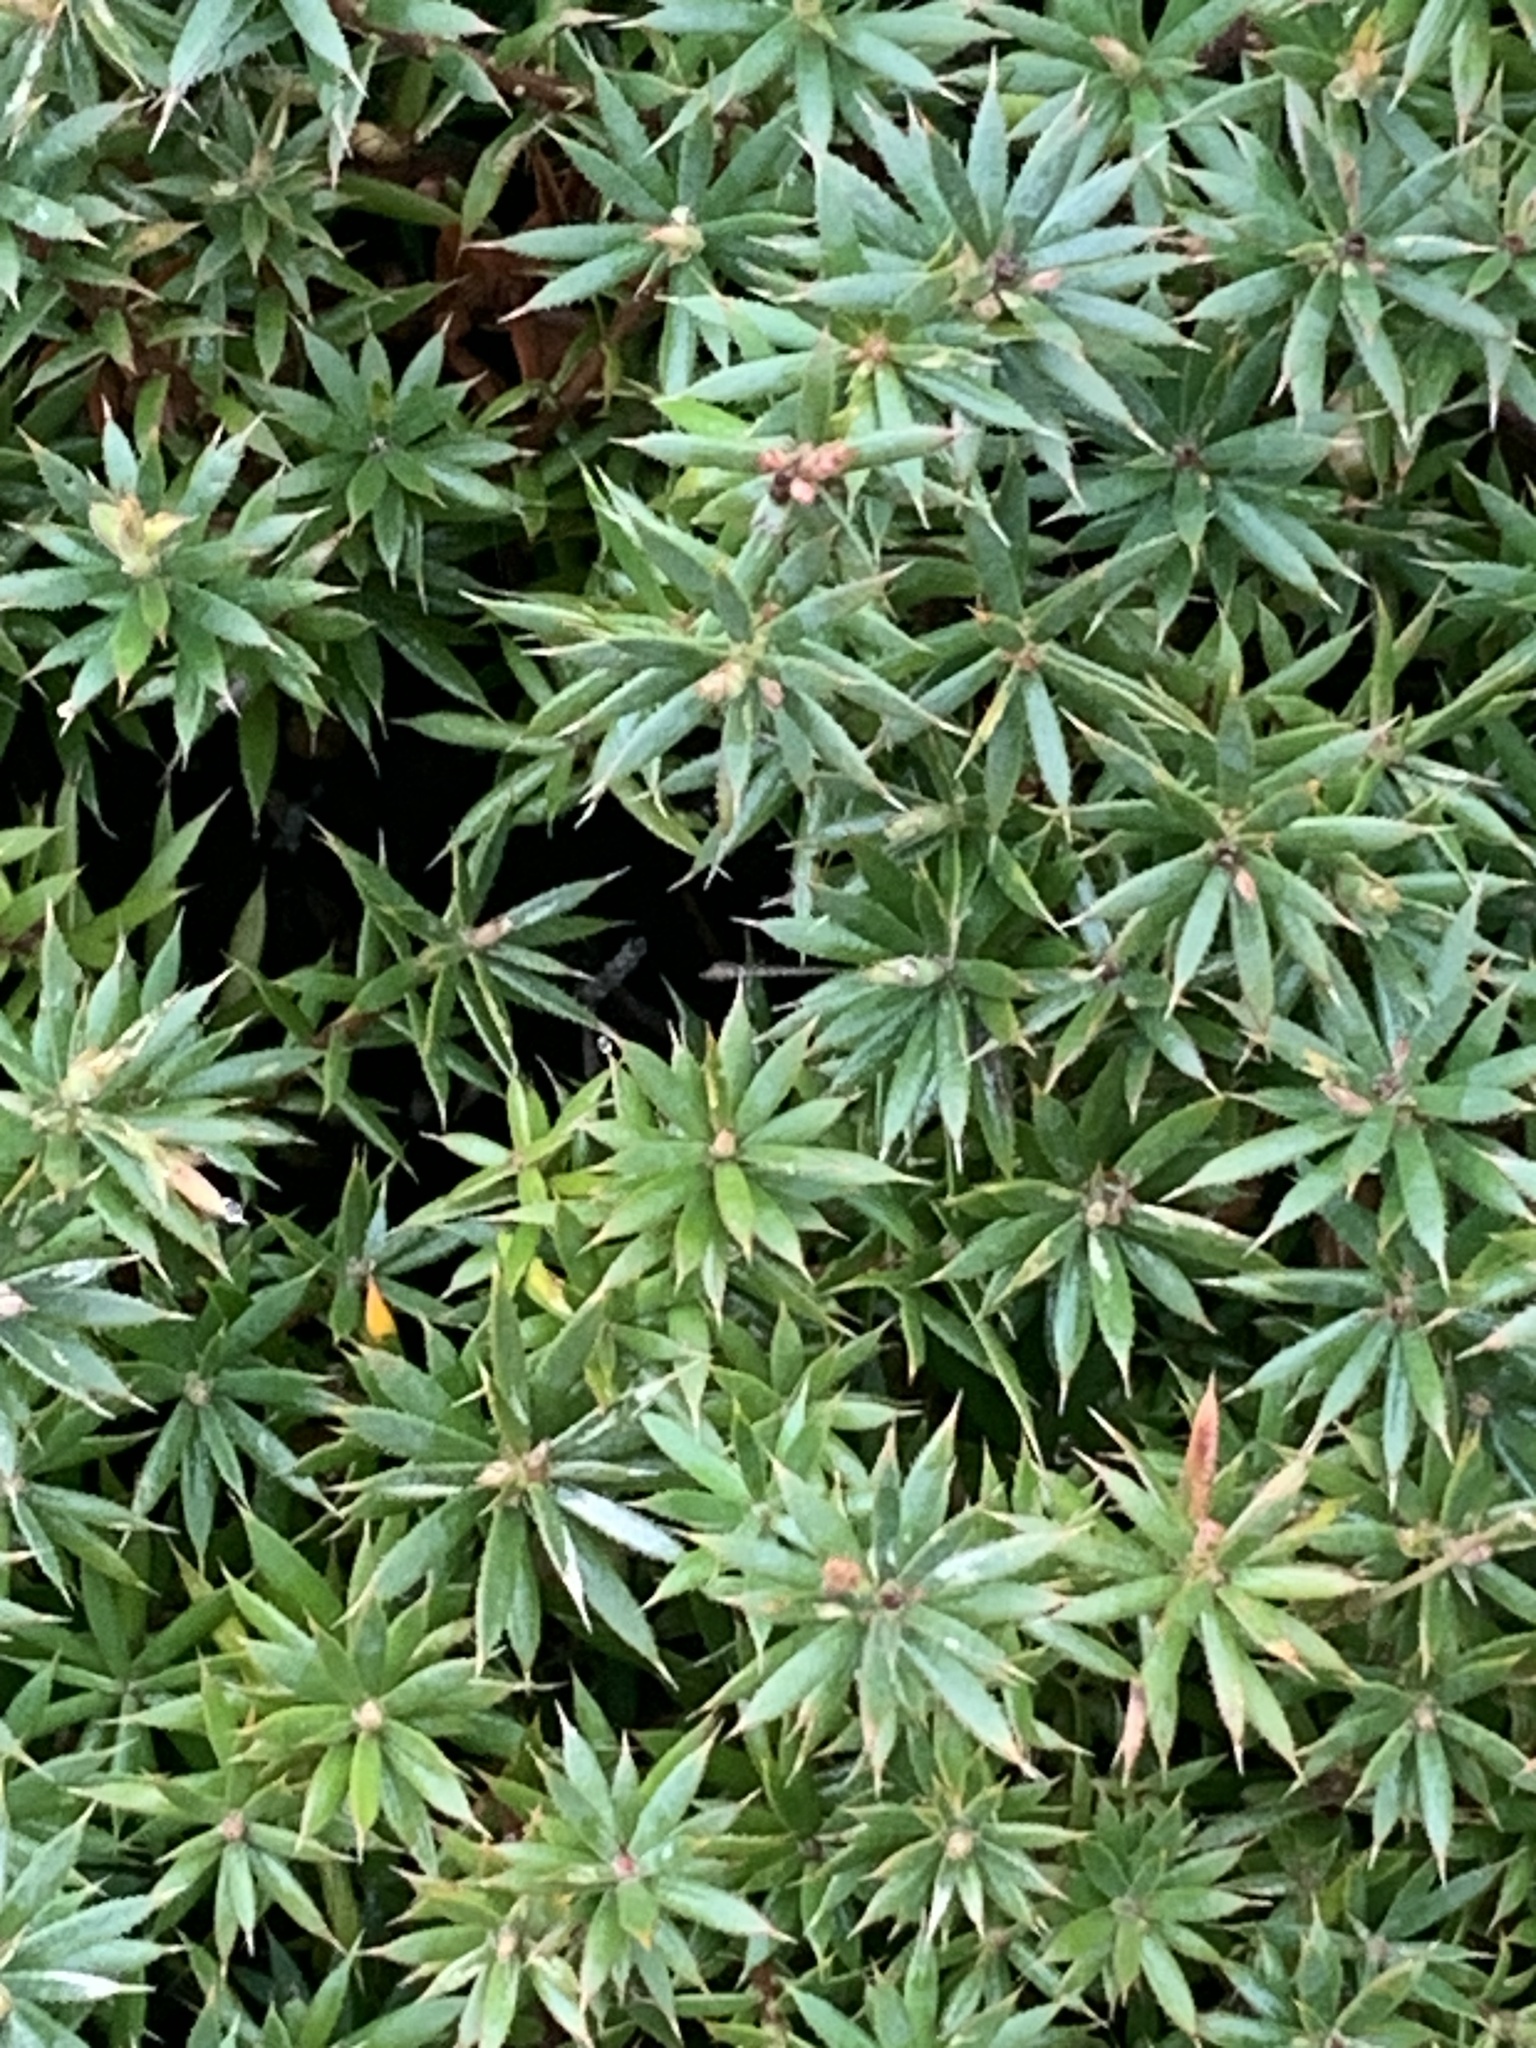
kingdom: Plantae
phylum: Tracheophyta
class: Magnoliopsida
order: Ericales
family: Ericaceae
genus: Styphelia
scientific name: Styphelia humifusa
